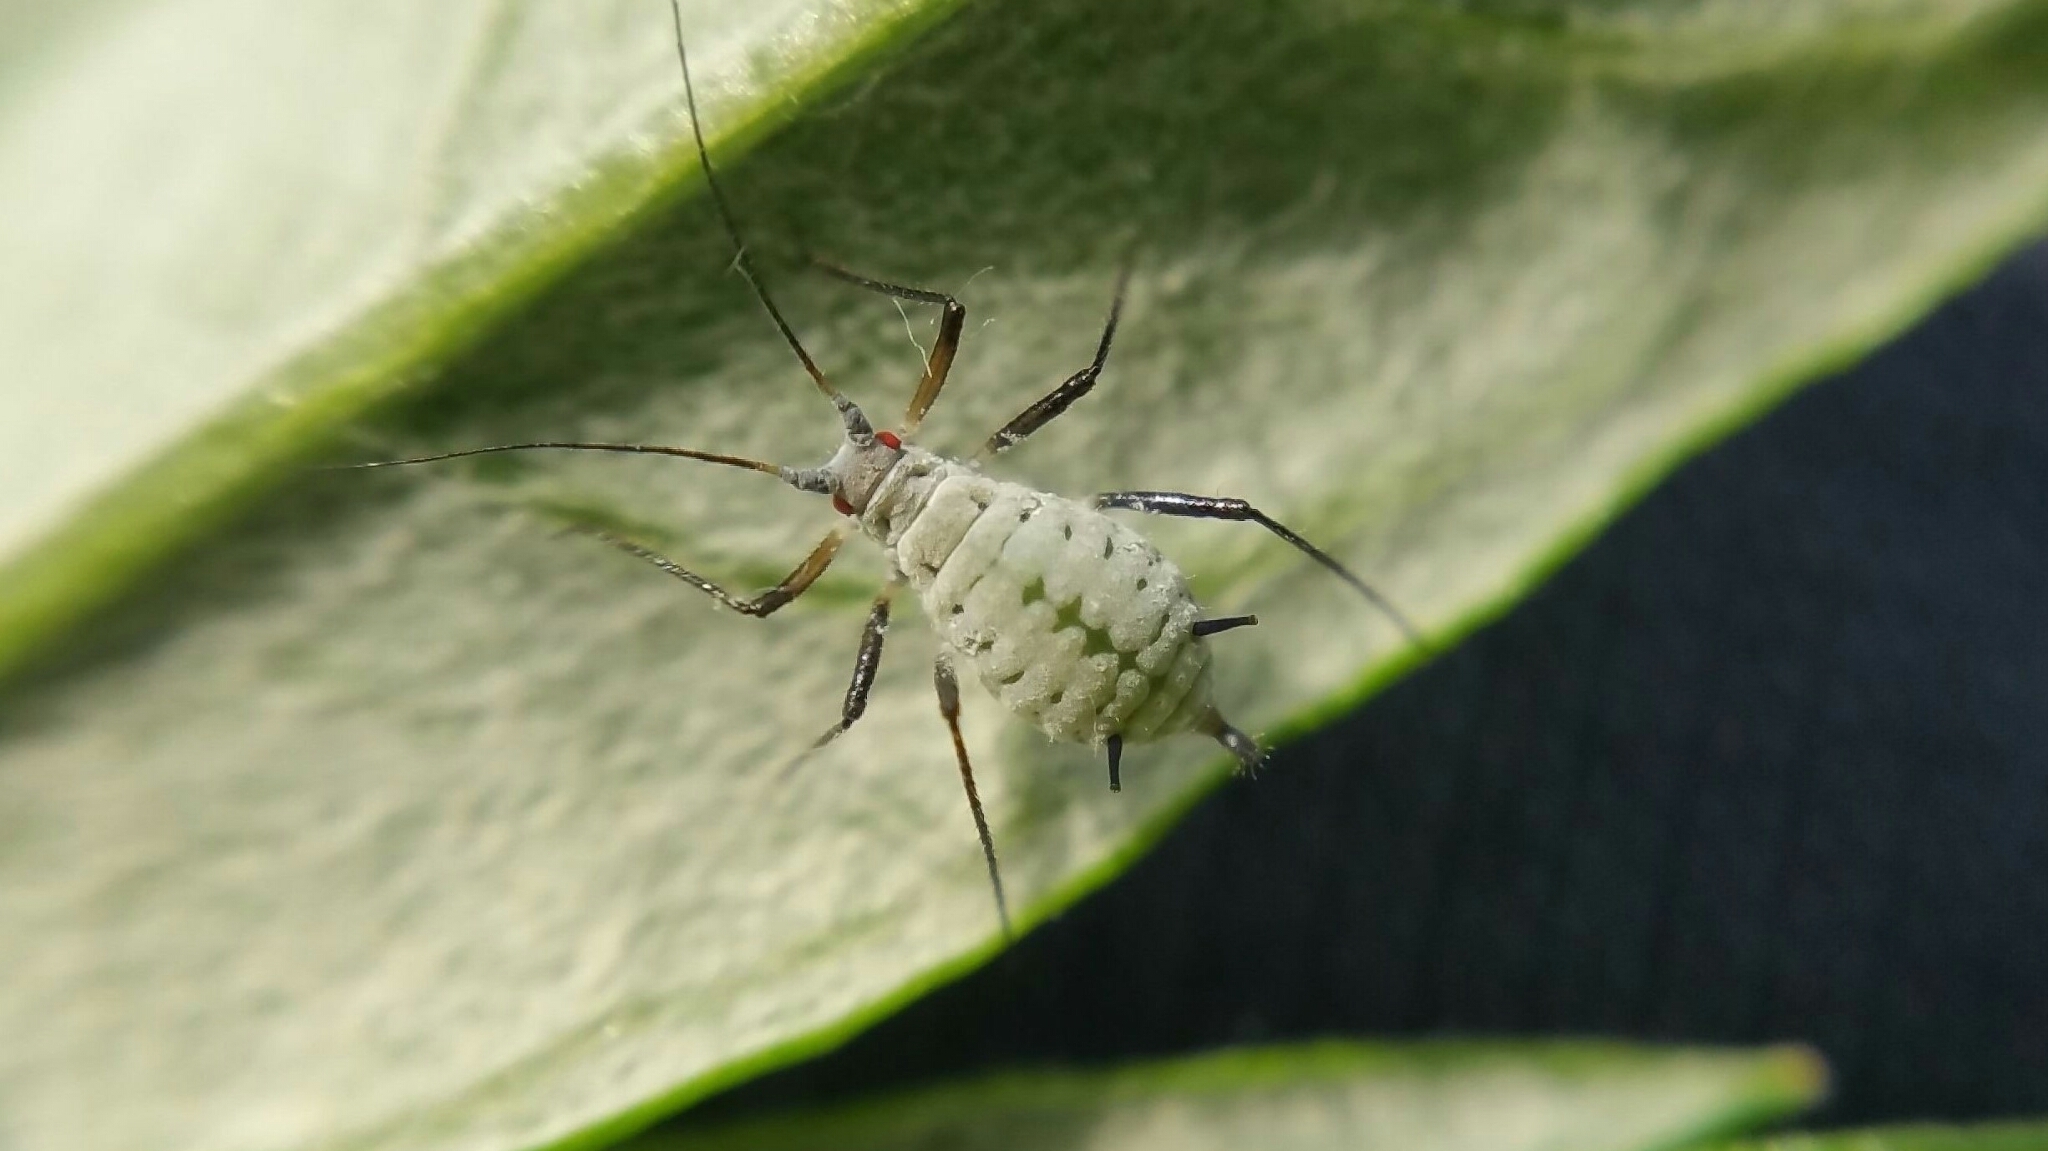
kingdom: Animalia
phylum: Arthropoda
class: Insecta
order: Hemiptera
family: Aphididae
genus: Macrosiphoniella
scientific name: Macrosiphoniella artemisiae
